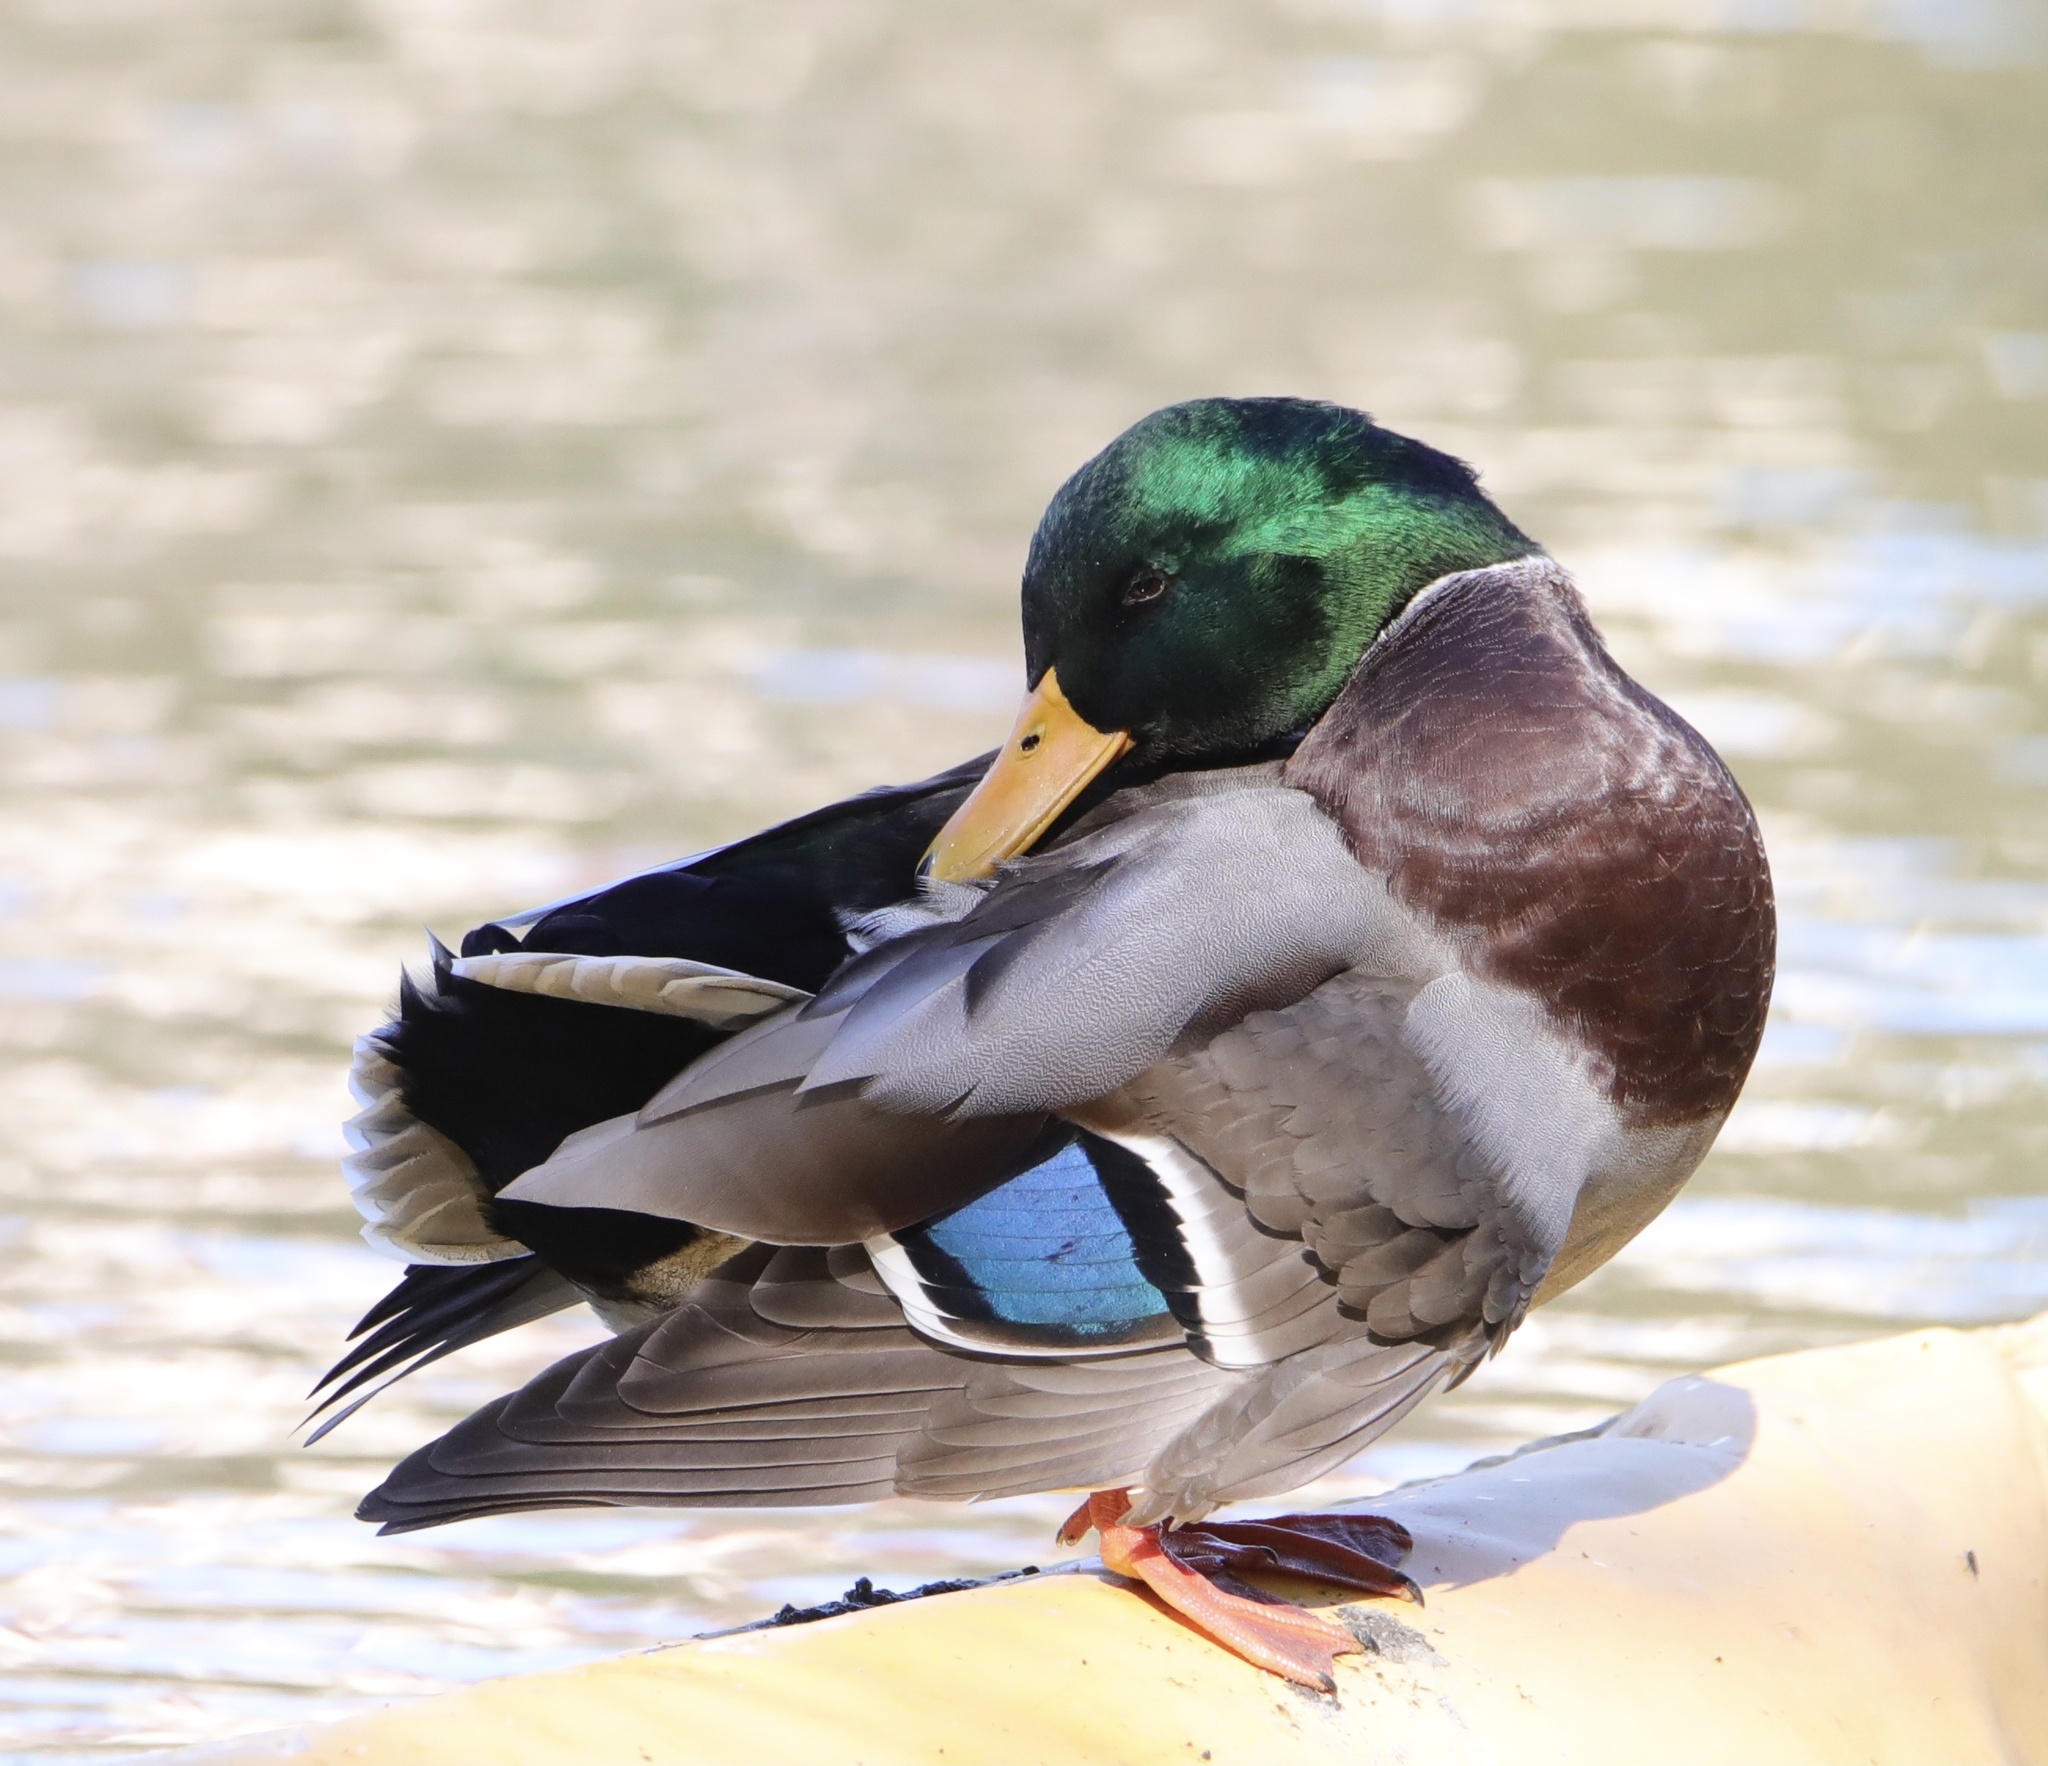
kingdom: Animalia
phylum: Chordata
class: Aves
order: Anseriformes
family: Anatidae
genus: Anas
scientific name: Anas platyrhynchos
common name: Mallard
